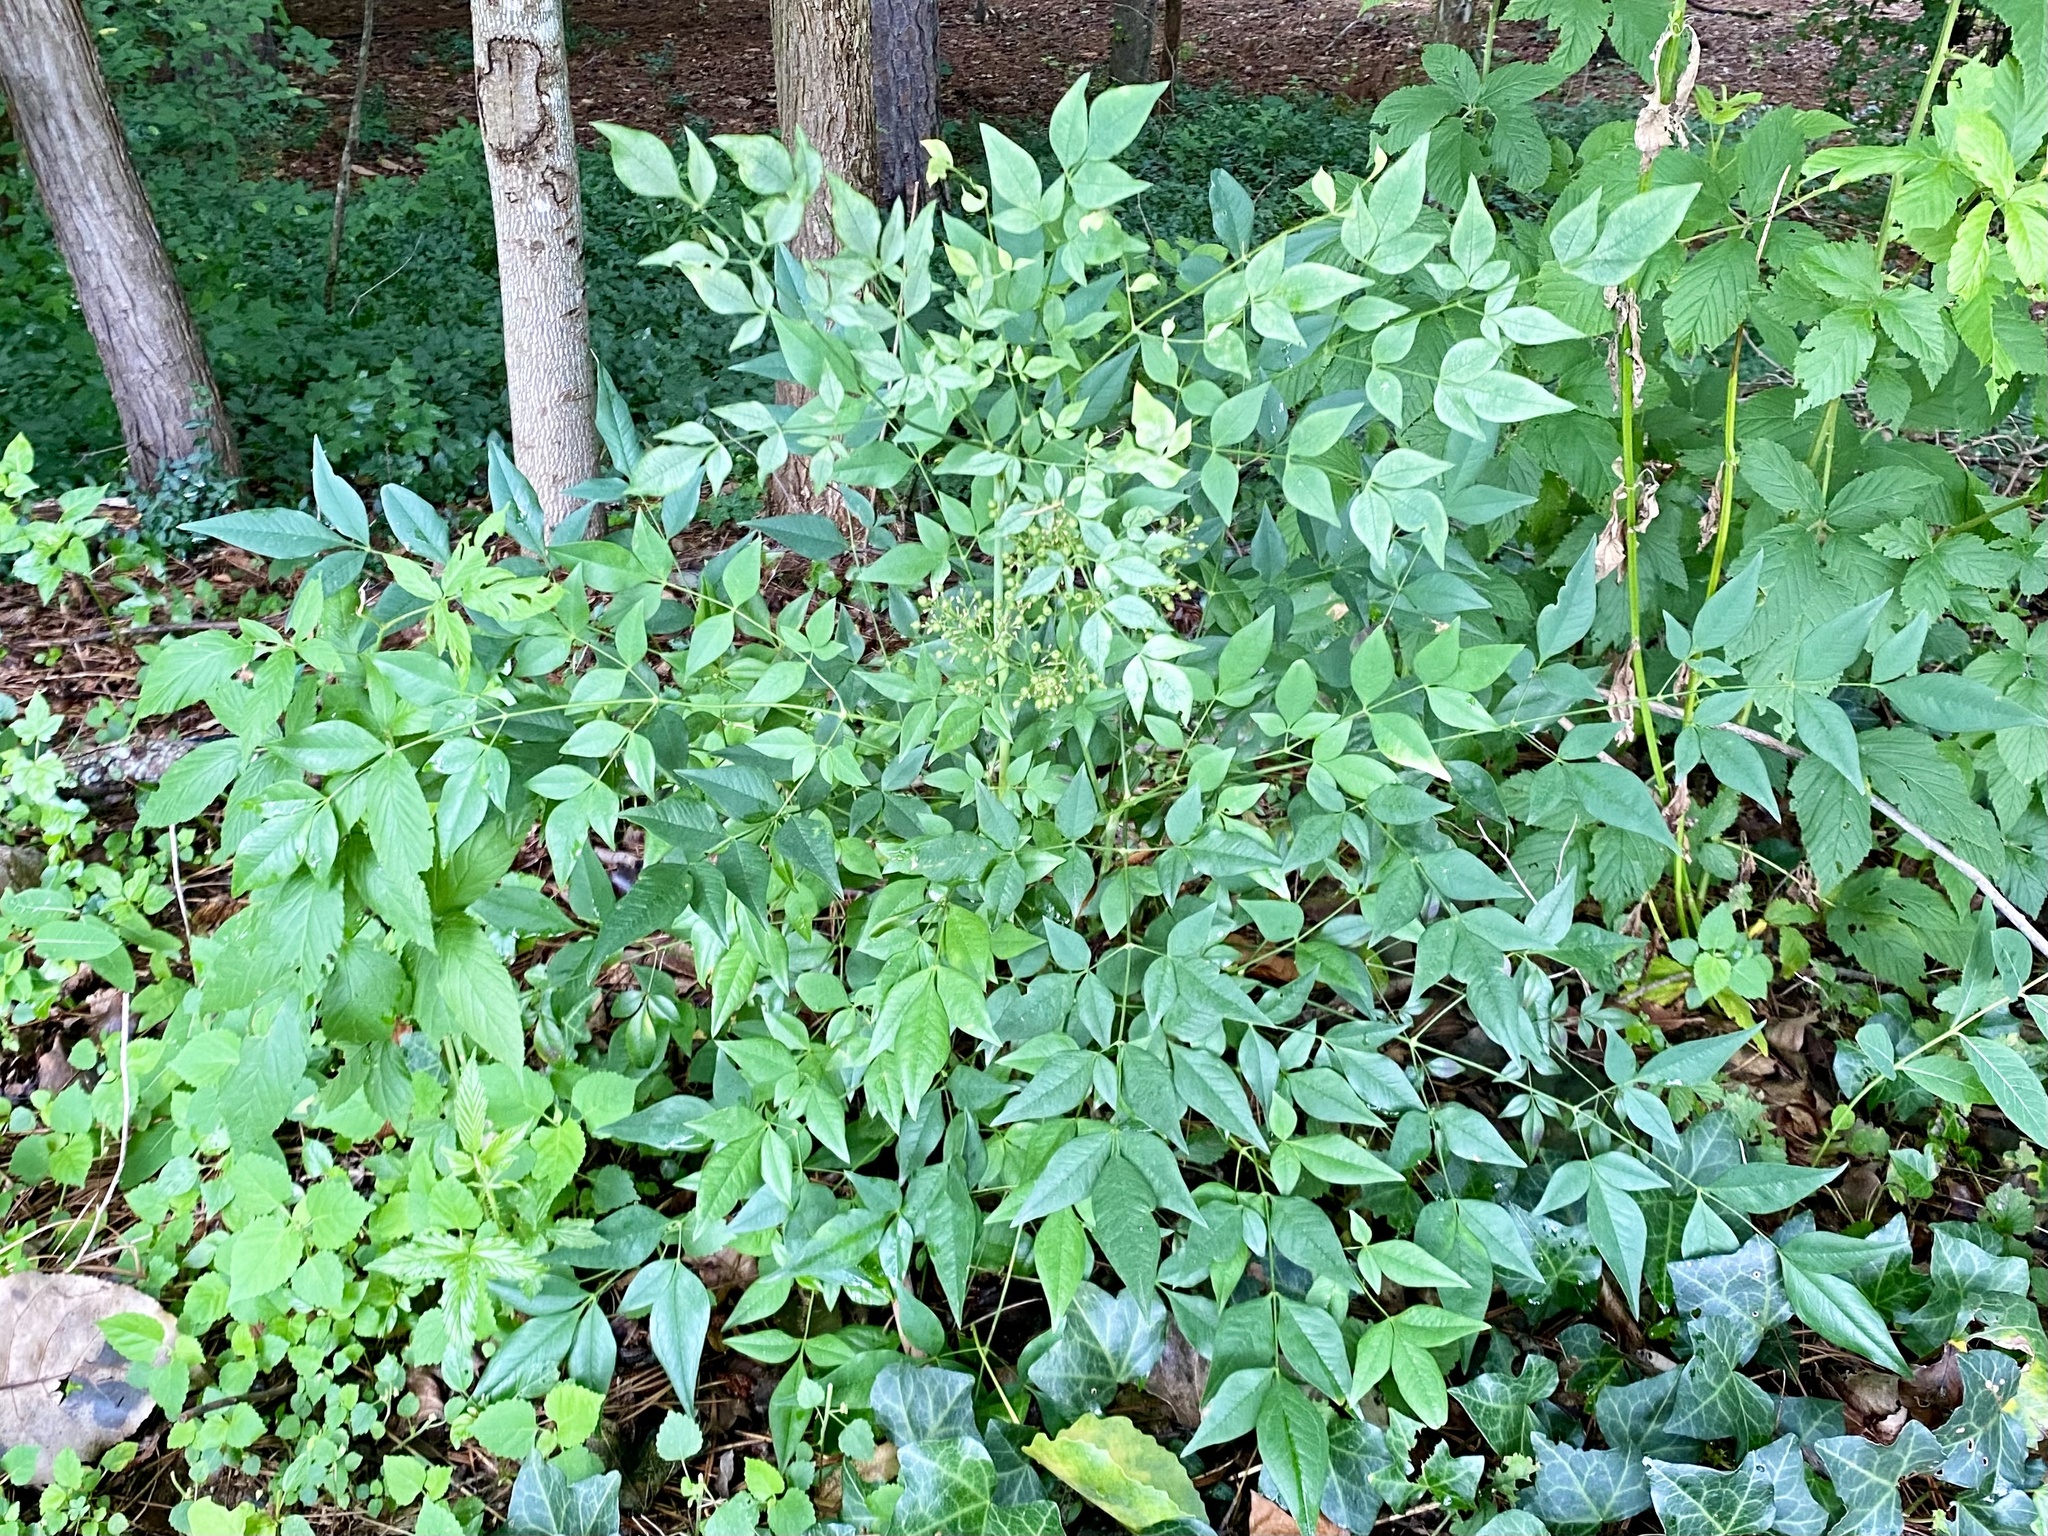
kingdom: Plantae
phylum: Tracheophyta
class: Magnoliopsida
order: Ranunculales
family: Berberidaceae
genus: Nandina
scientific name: Nandina domestica
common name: Sacred bamboo
